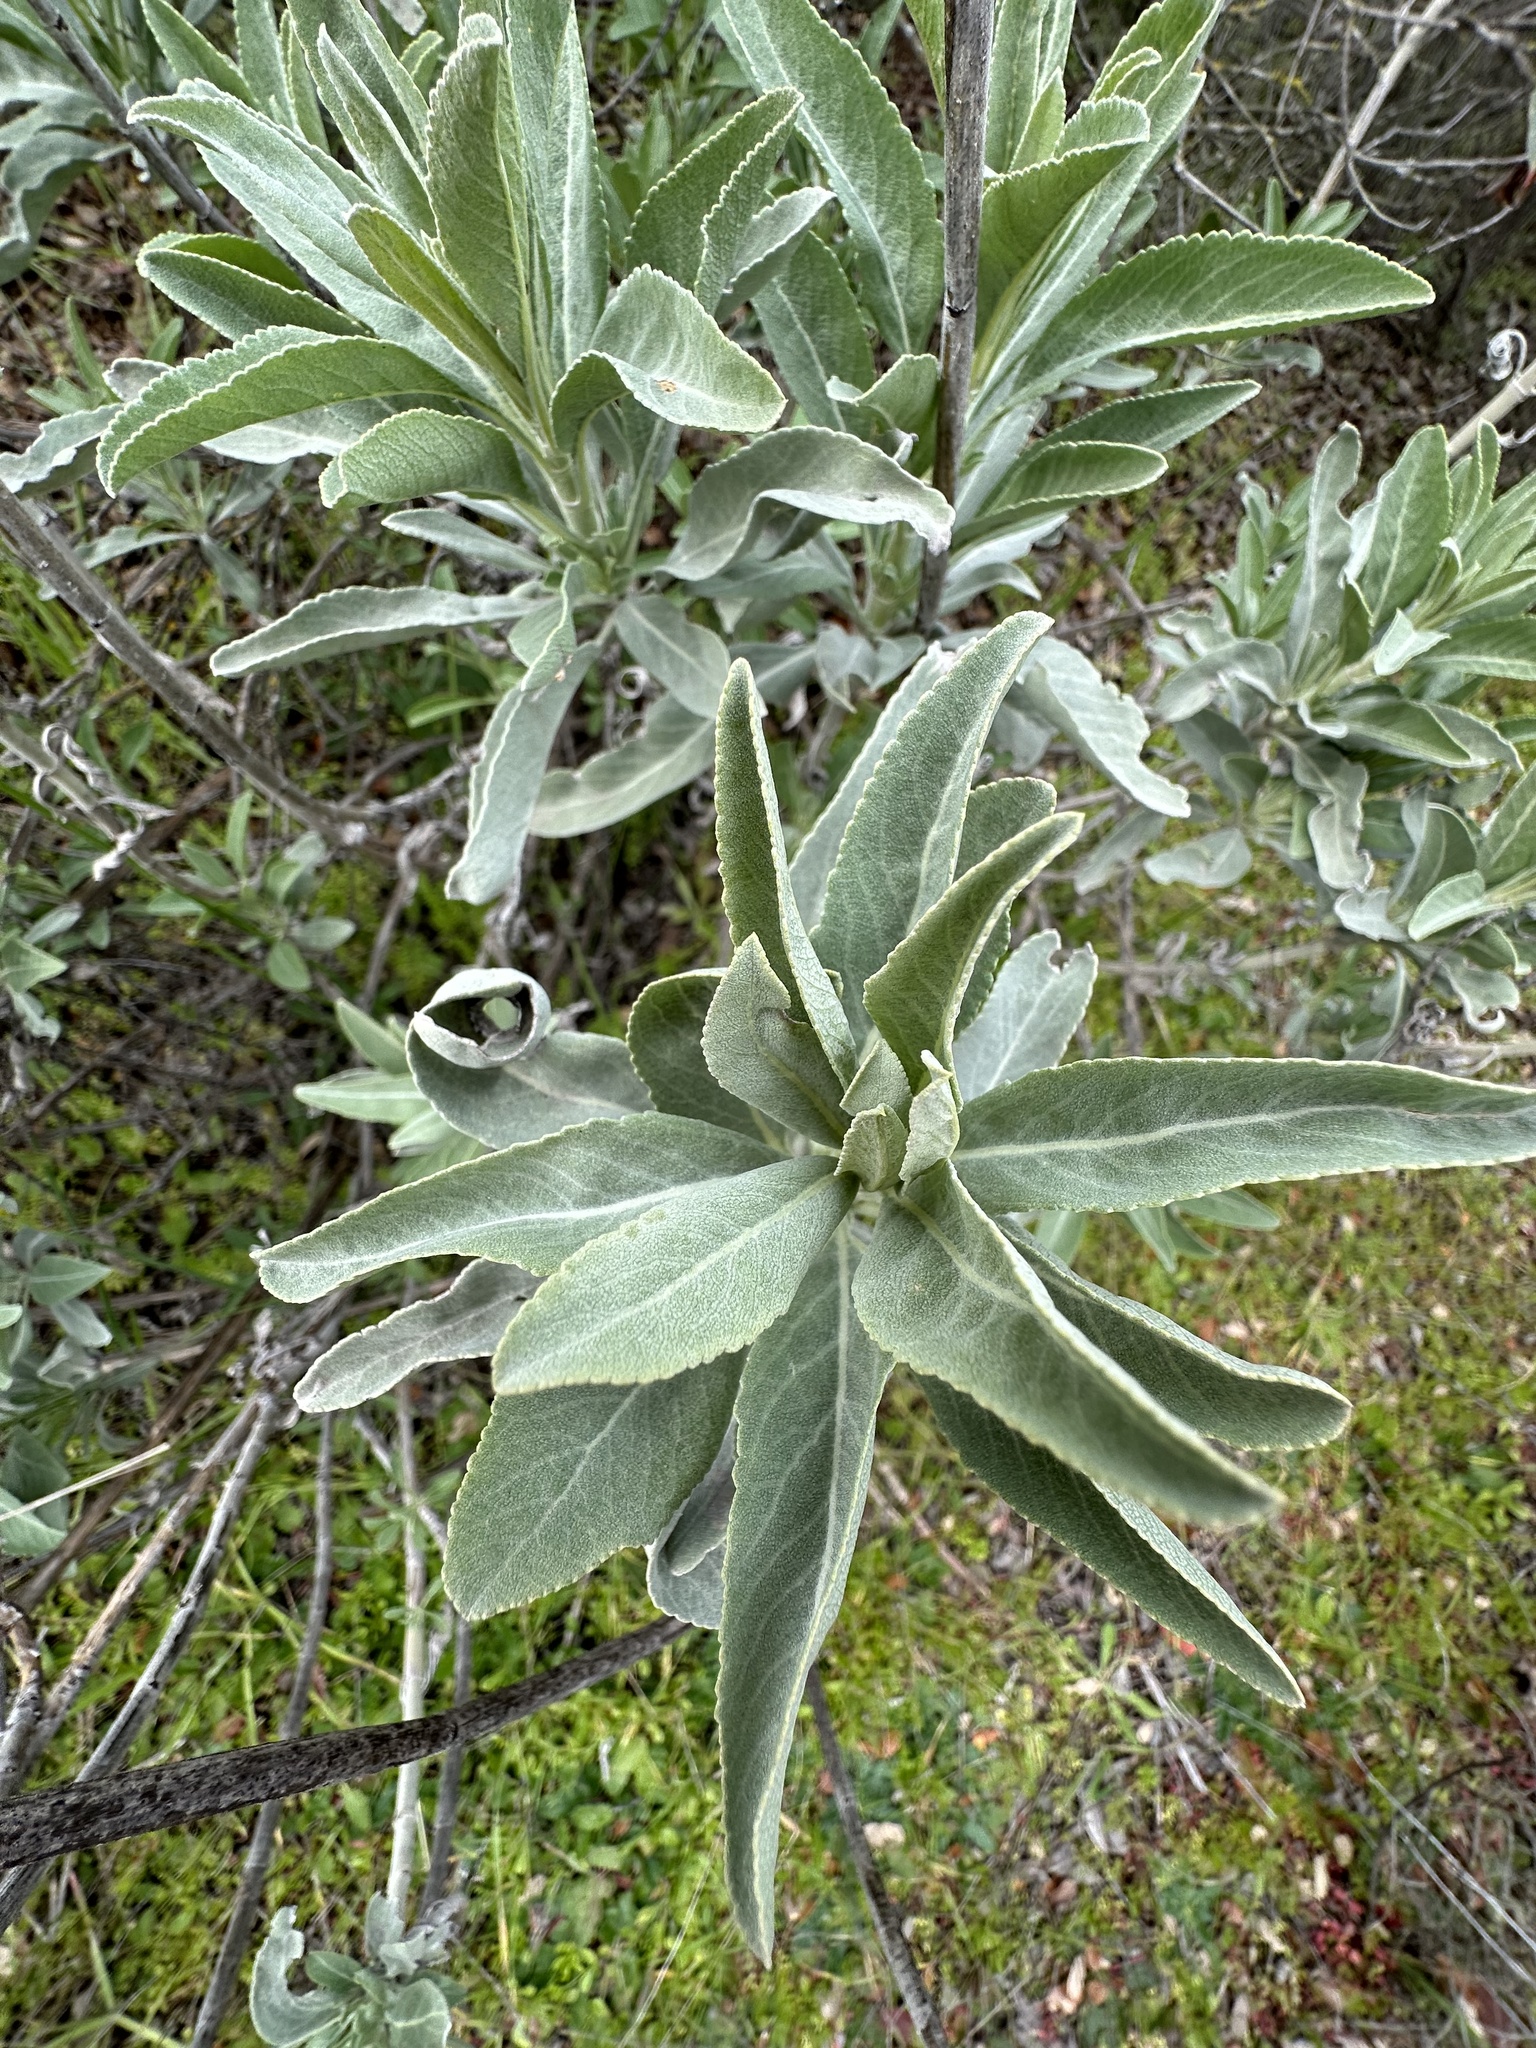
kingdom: Plantae
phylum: Tracheophyta
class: Magnoliopsida
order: Lamiales
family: Lamiaceae
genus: Salvia
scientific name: Salvia apiana
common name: White sage
